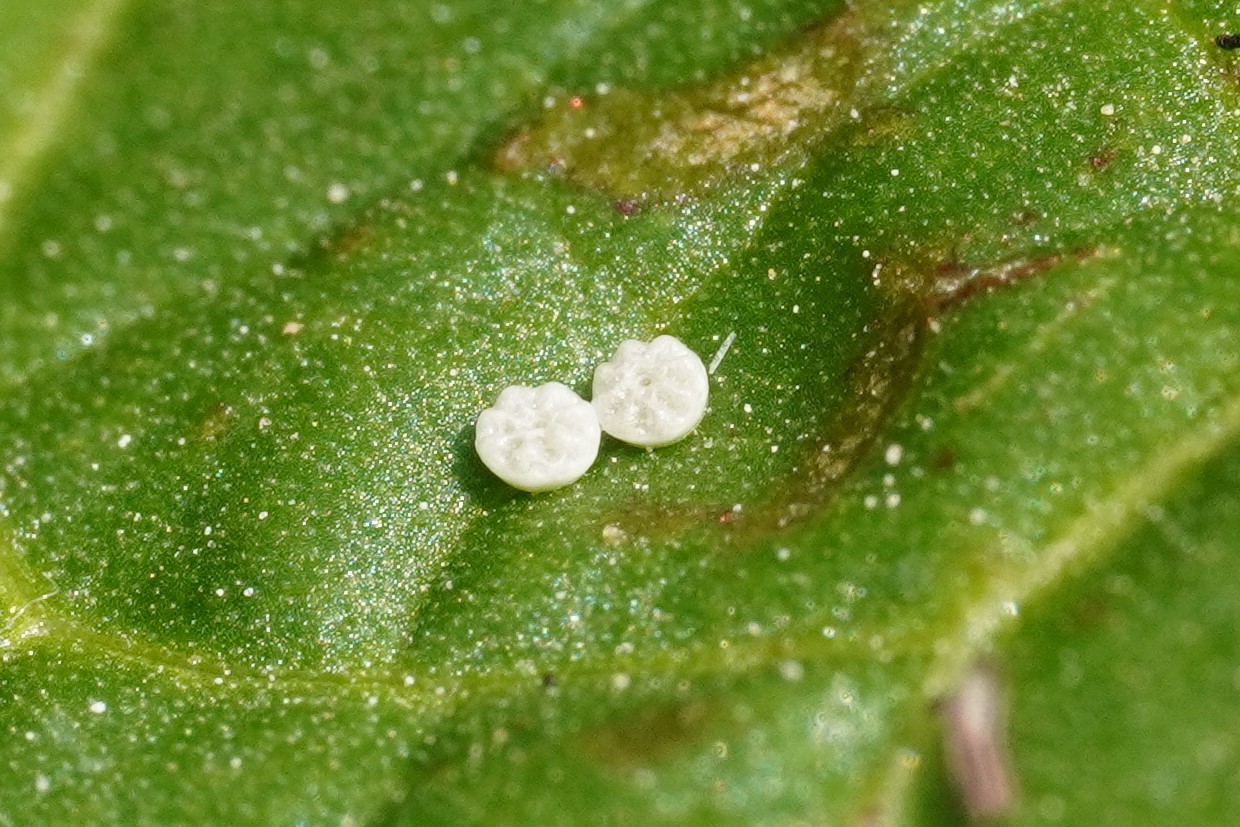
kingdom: Animalia
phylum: Arthropoda
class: Insecta
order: Lepidoptera
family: Lycaenidae
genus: Lycaena
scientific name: Lycaena dispar
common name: Large copper
